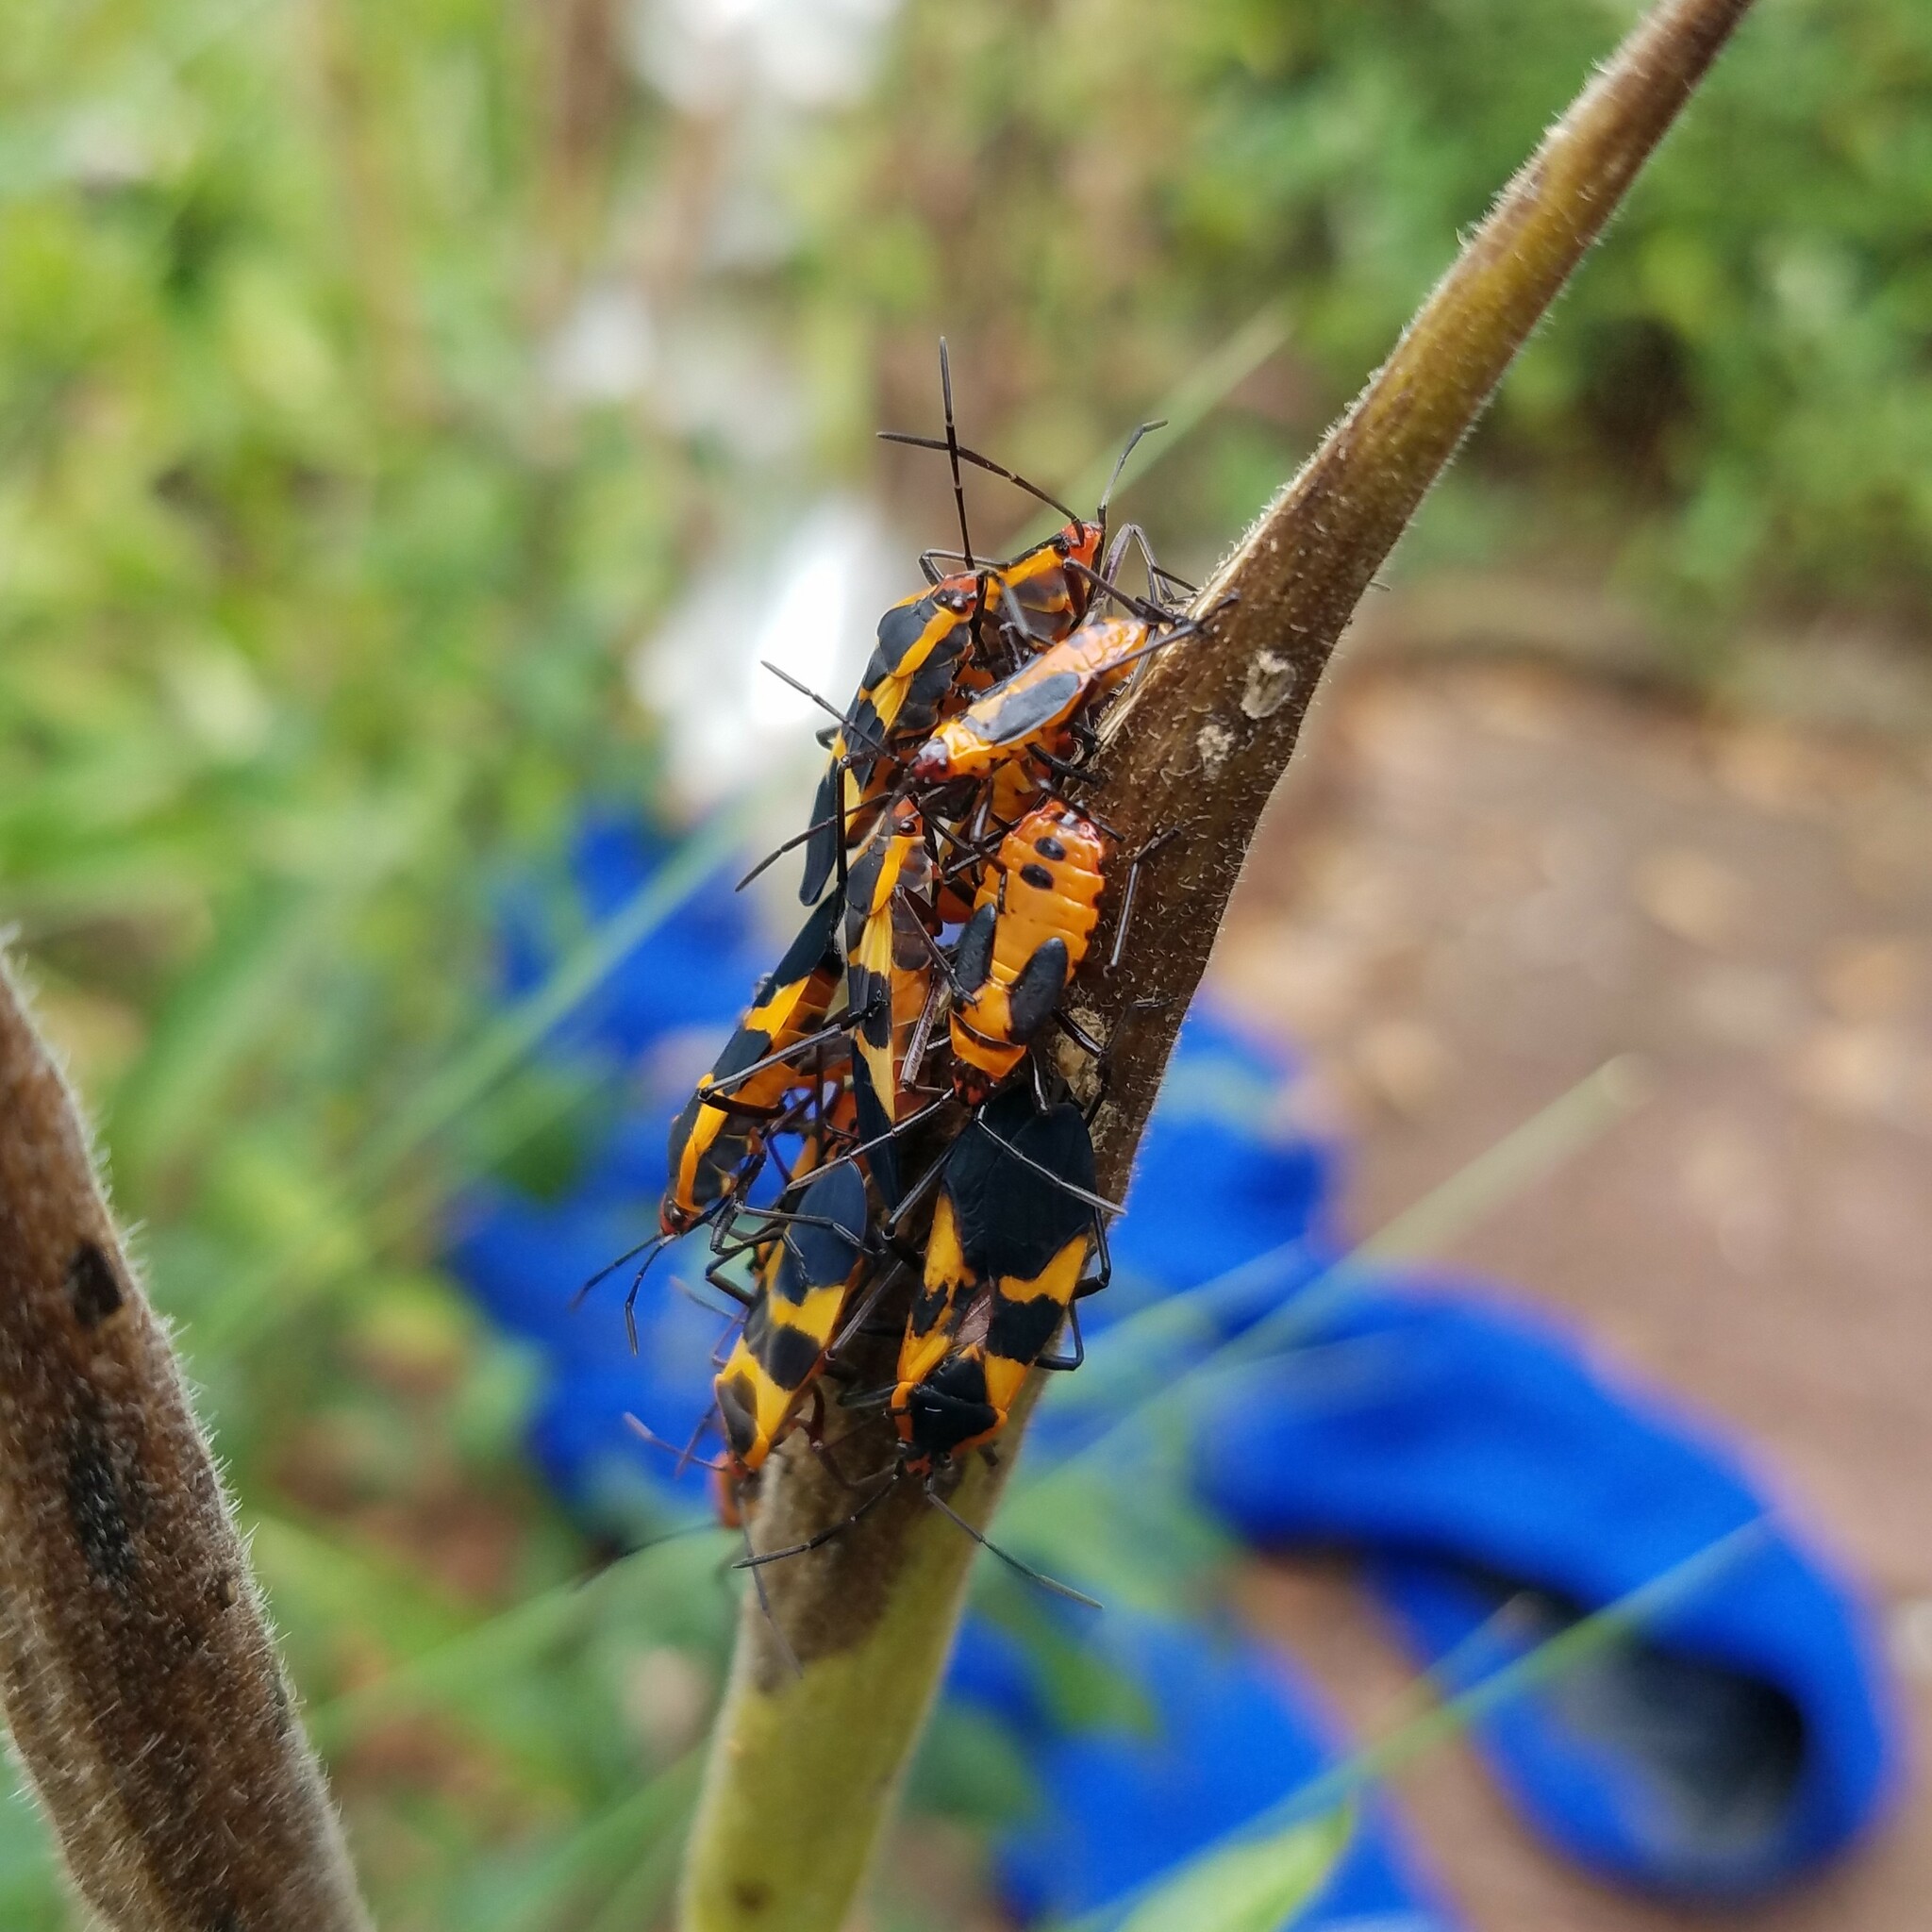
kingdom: Animalia
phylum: Arthropoda
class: Insecta
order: Hemiptera
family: Lygaeidae
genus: Oncopeltus
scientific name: Oncopeltus fasciatus
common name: Large milkweed bug
